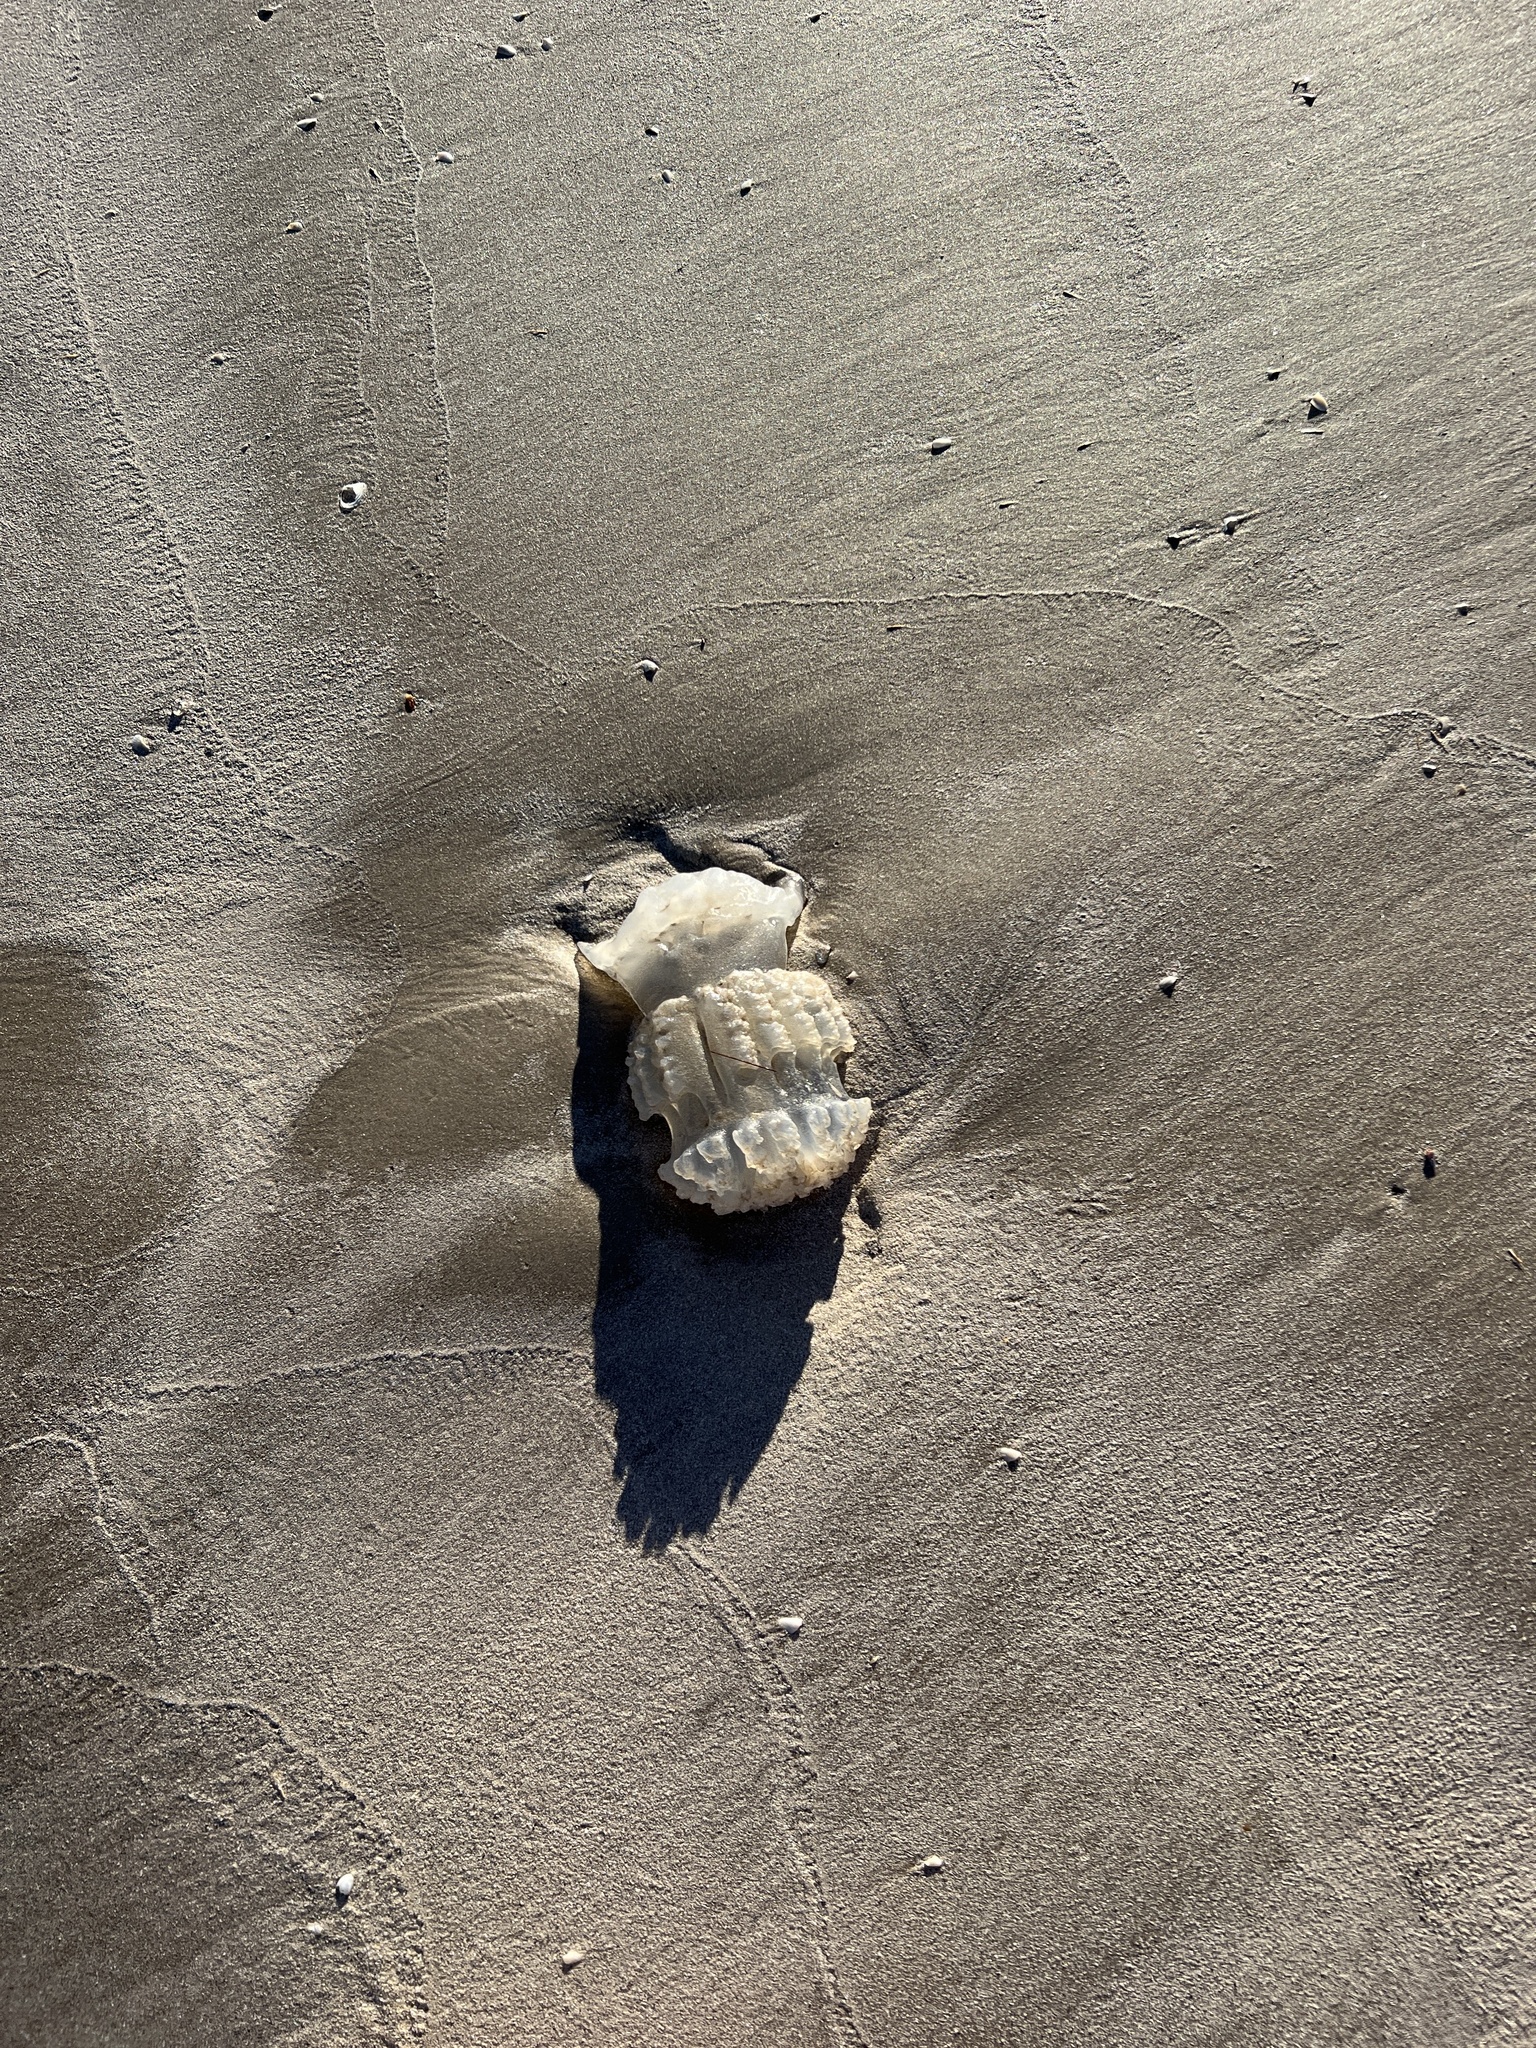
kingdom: Animalia
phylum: Cnidaria
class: Scyphozoa
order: Rhizostomeae
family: Stomolophidae
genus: Stomolophus
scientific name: Stomolophus meleagris
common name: Cabbagehead
